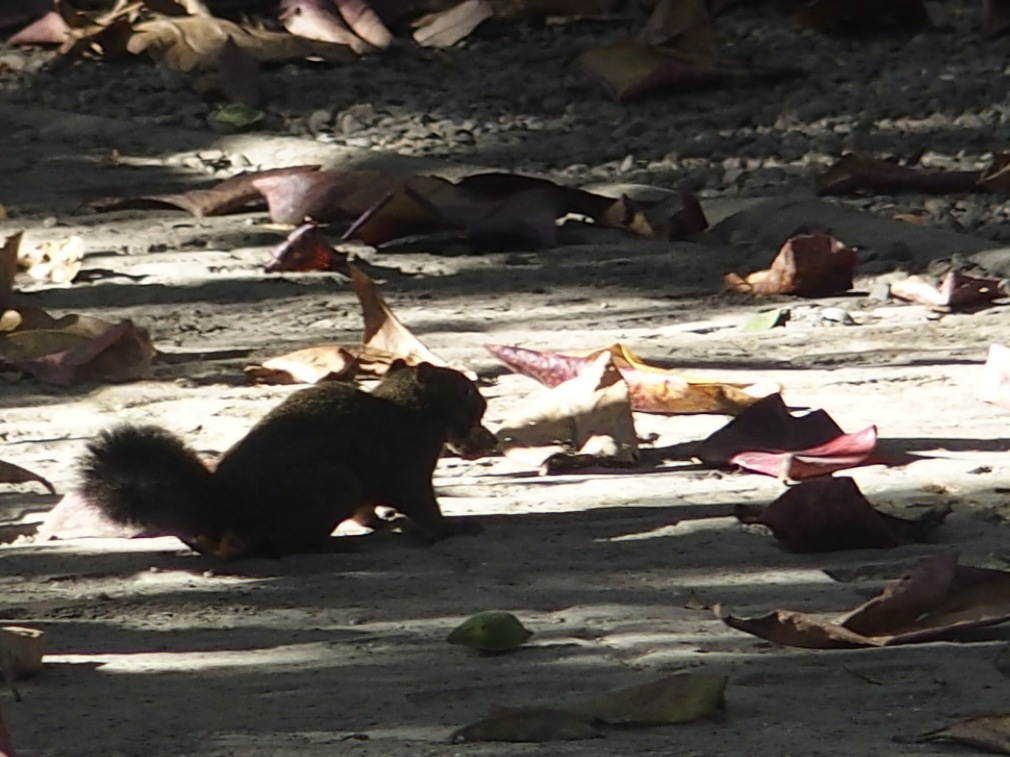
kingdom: Animalia
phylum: Chordata
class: Mammalia
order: Rodentia
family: Sciuridae
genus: Callosciurus
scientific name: Callosciurus erythraeus
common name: Pallas's squirrel
